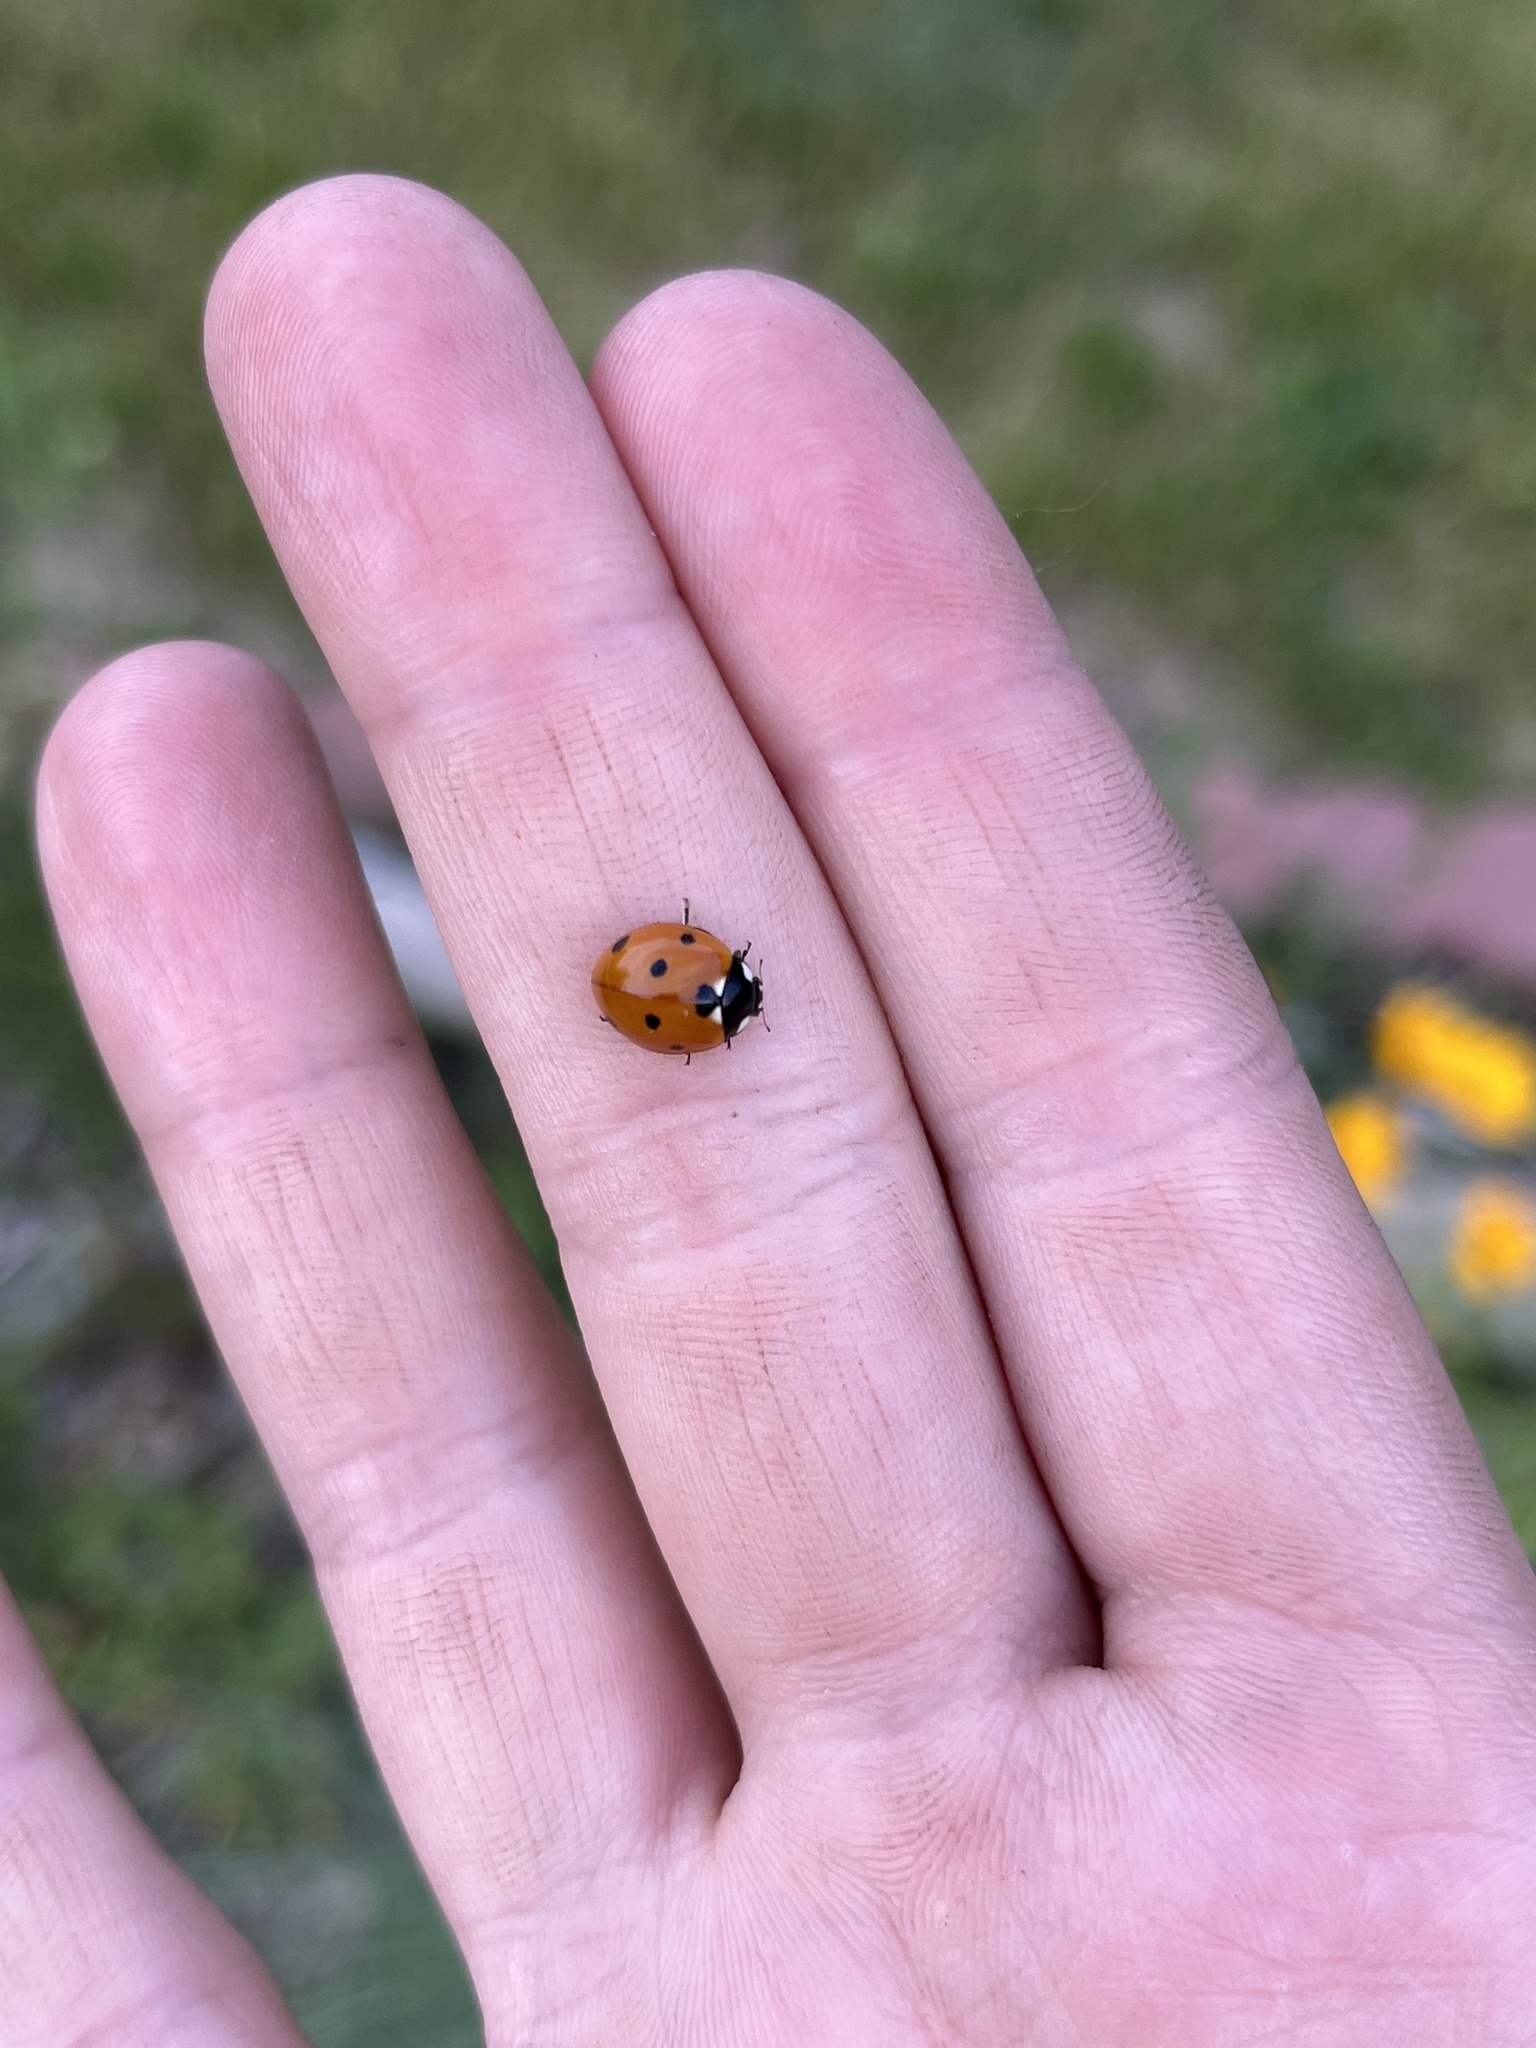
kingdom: Animalia
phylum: Arthropoda
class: Insecta
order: Coleoptera
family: Coccinellidae
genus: Coccinella
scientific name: Coccinella septempunctata
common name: Sevenspotted lady beetle
